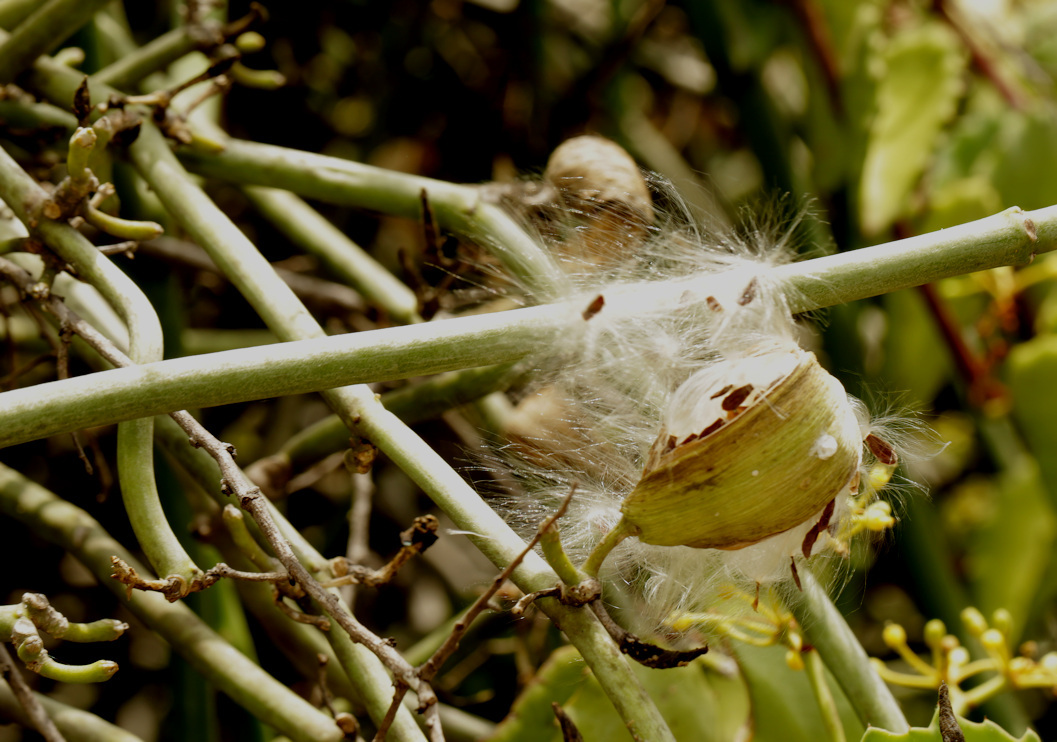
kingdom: Plantae
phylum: Tracheophyta
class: Magnoliopsida
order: Gentianales
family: Apocynaceae
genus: Cynanchum
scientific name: Cynanchum viminale
